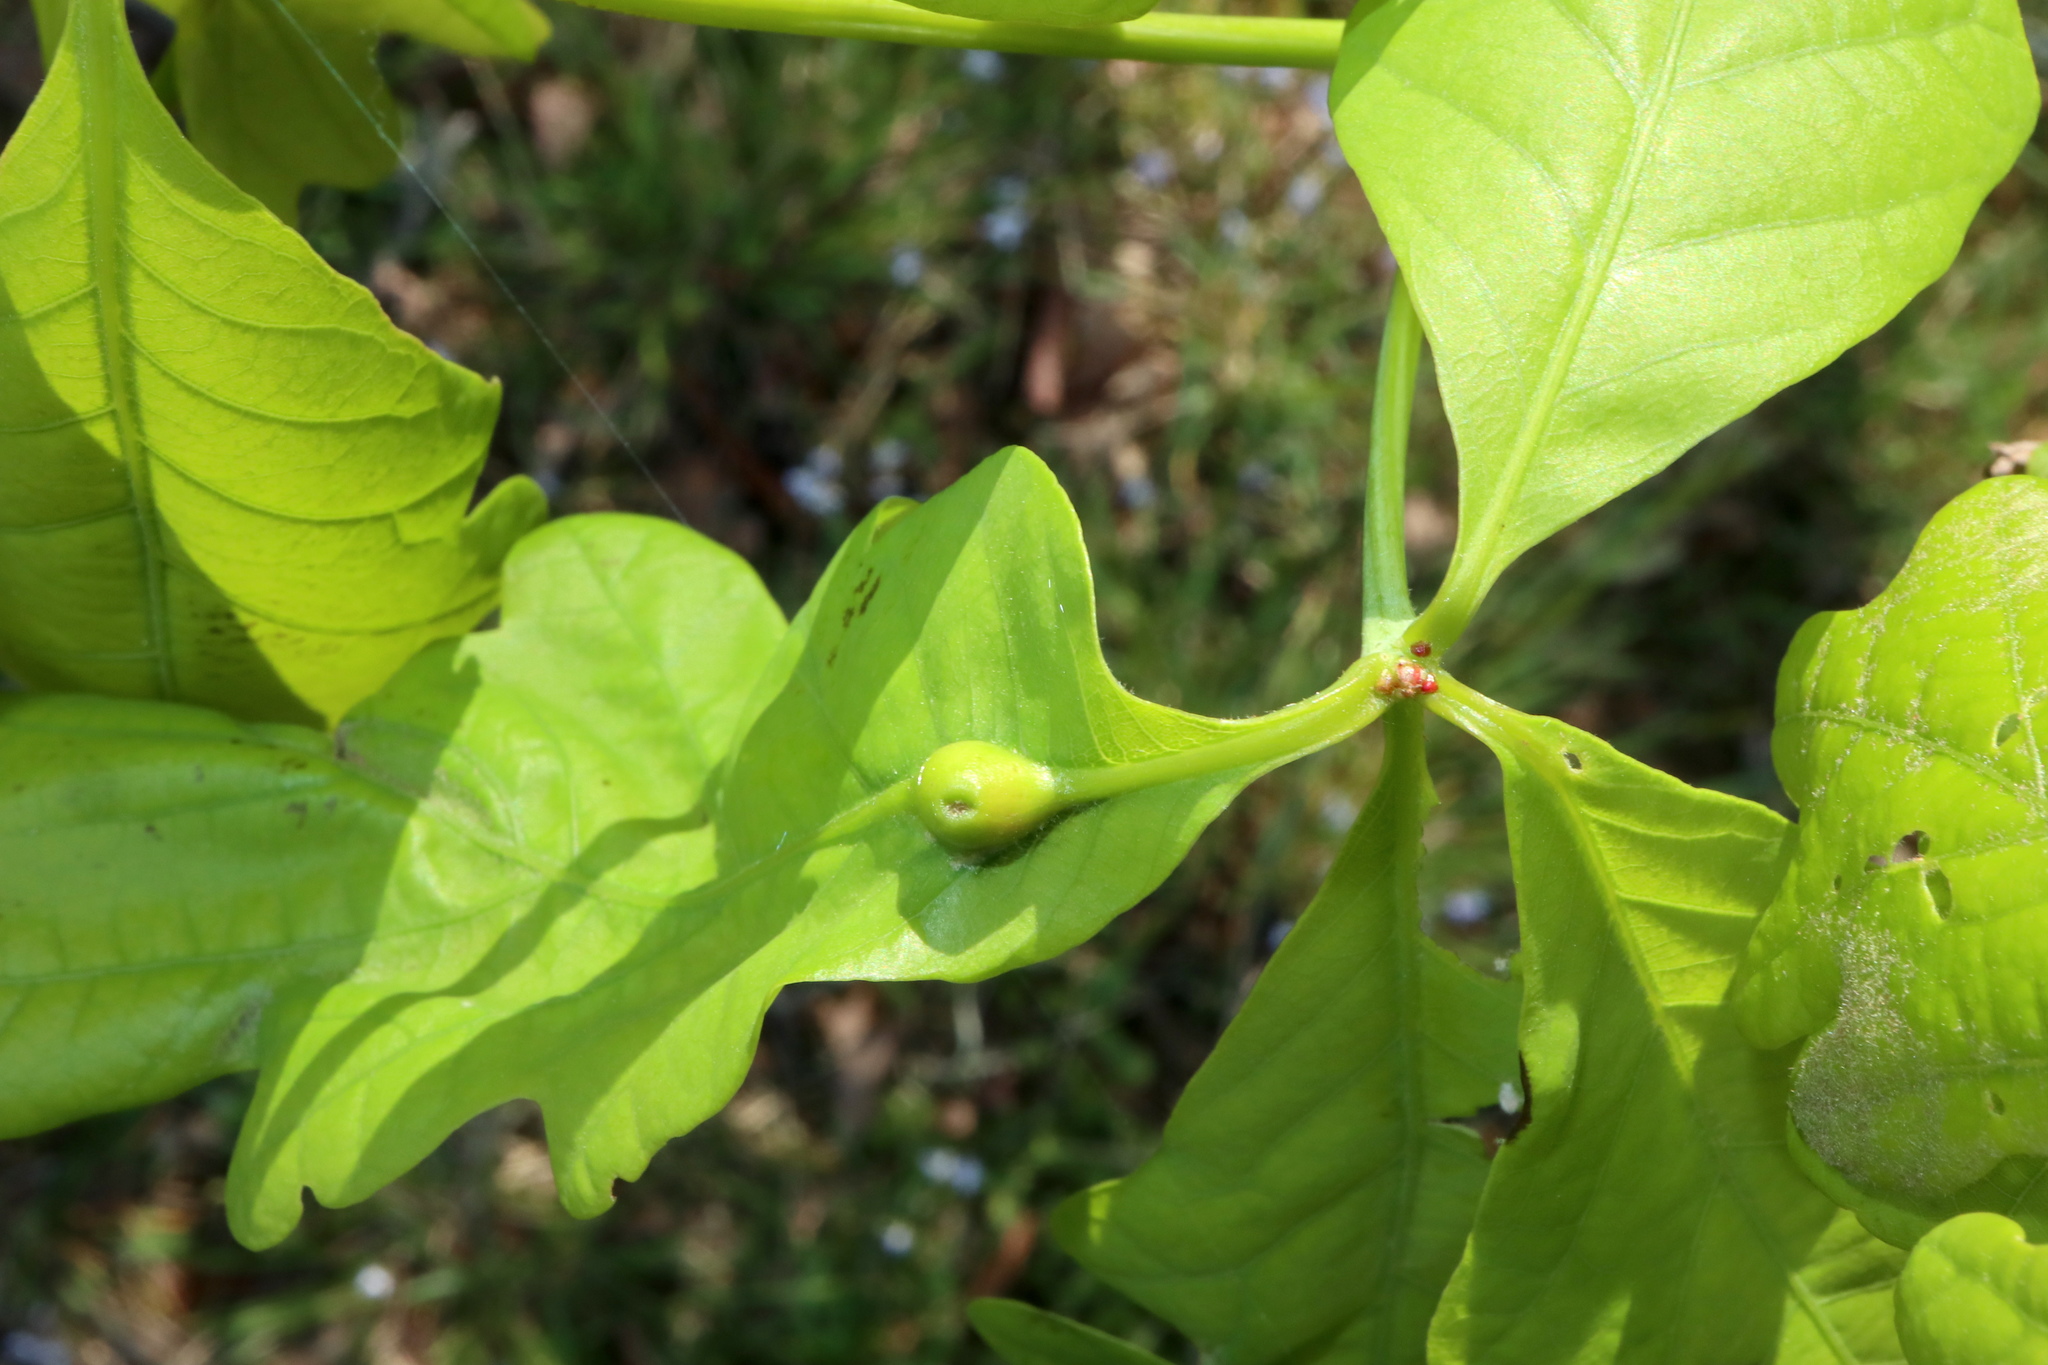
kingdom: Animalia
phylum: Arthropoda
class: Insecta
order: Hymenoptera
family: Cynipidae
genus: Andricus
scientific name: Andricus
